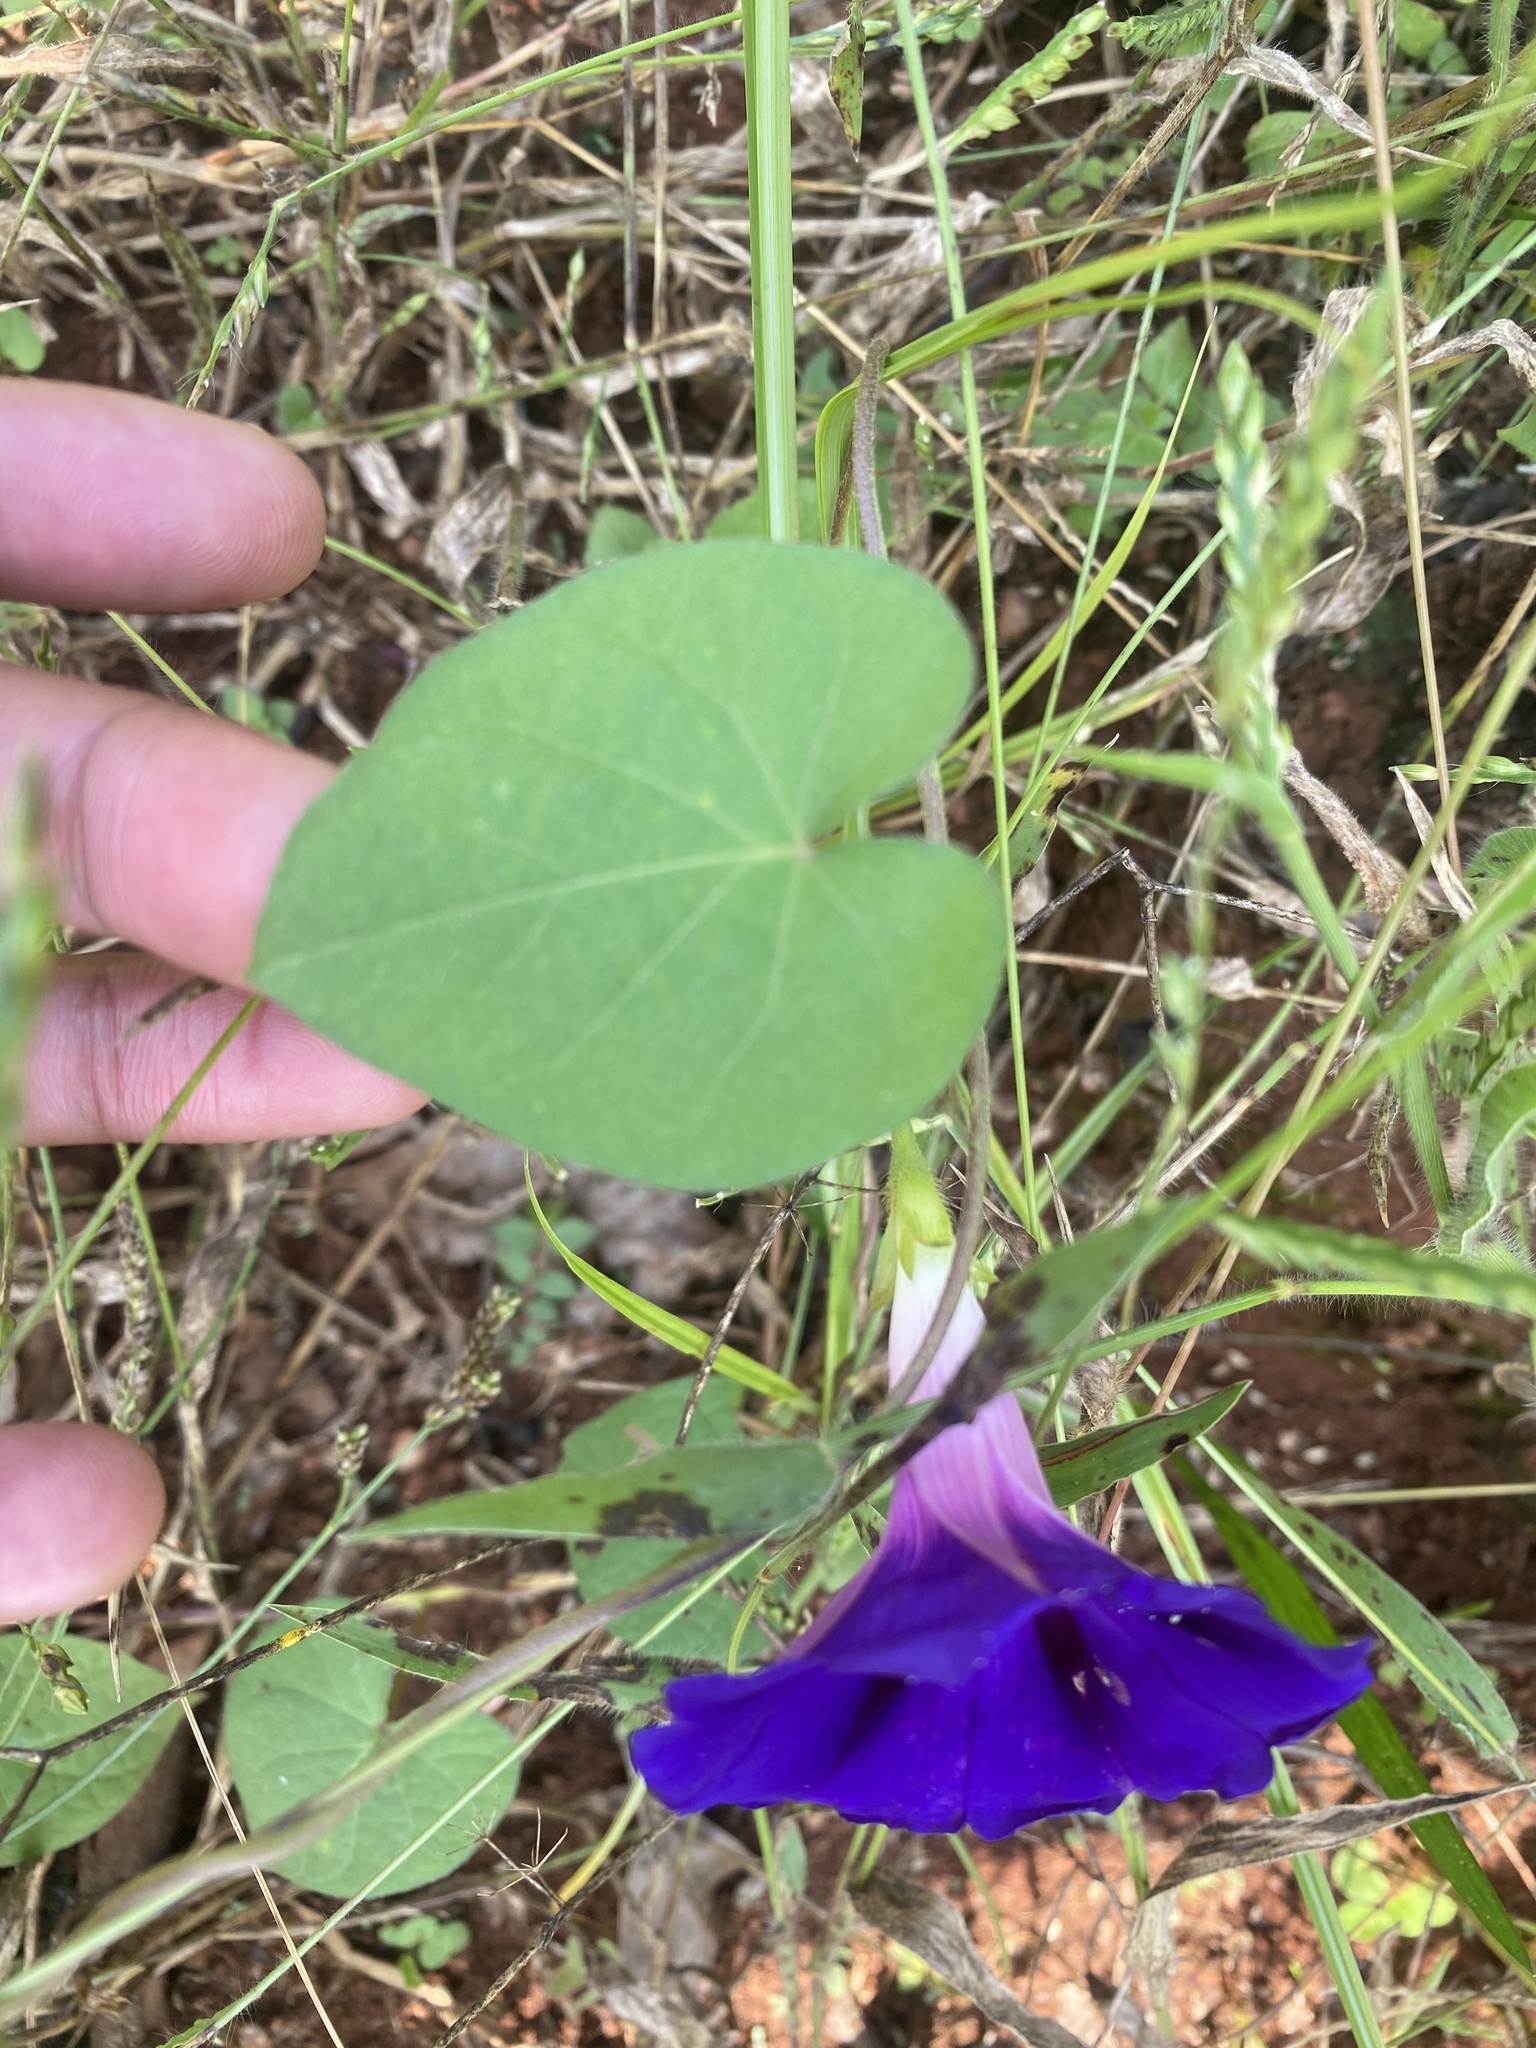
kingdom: Plantae
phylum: Tracheophyta
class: Magnoliopsida
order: Solanales
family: Convolvulaceae
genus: Ipomoea
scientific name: Ipomoea purpurea
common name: Common morning-glory
